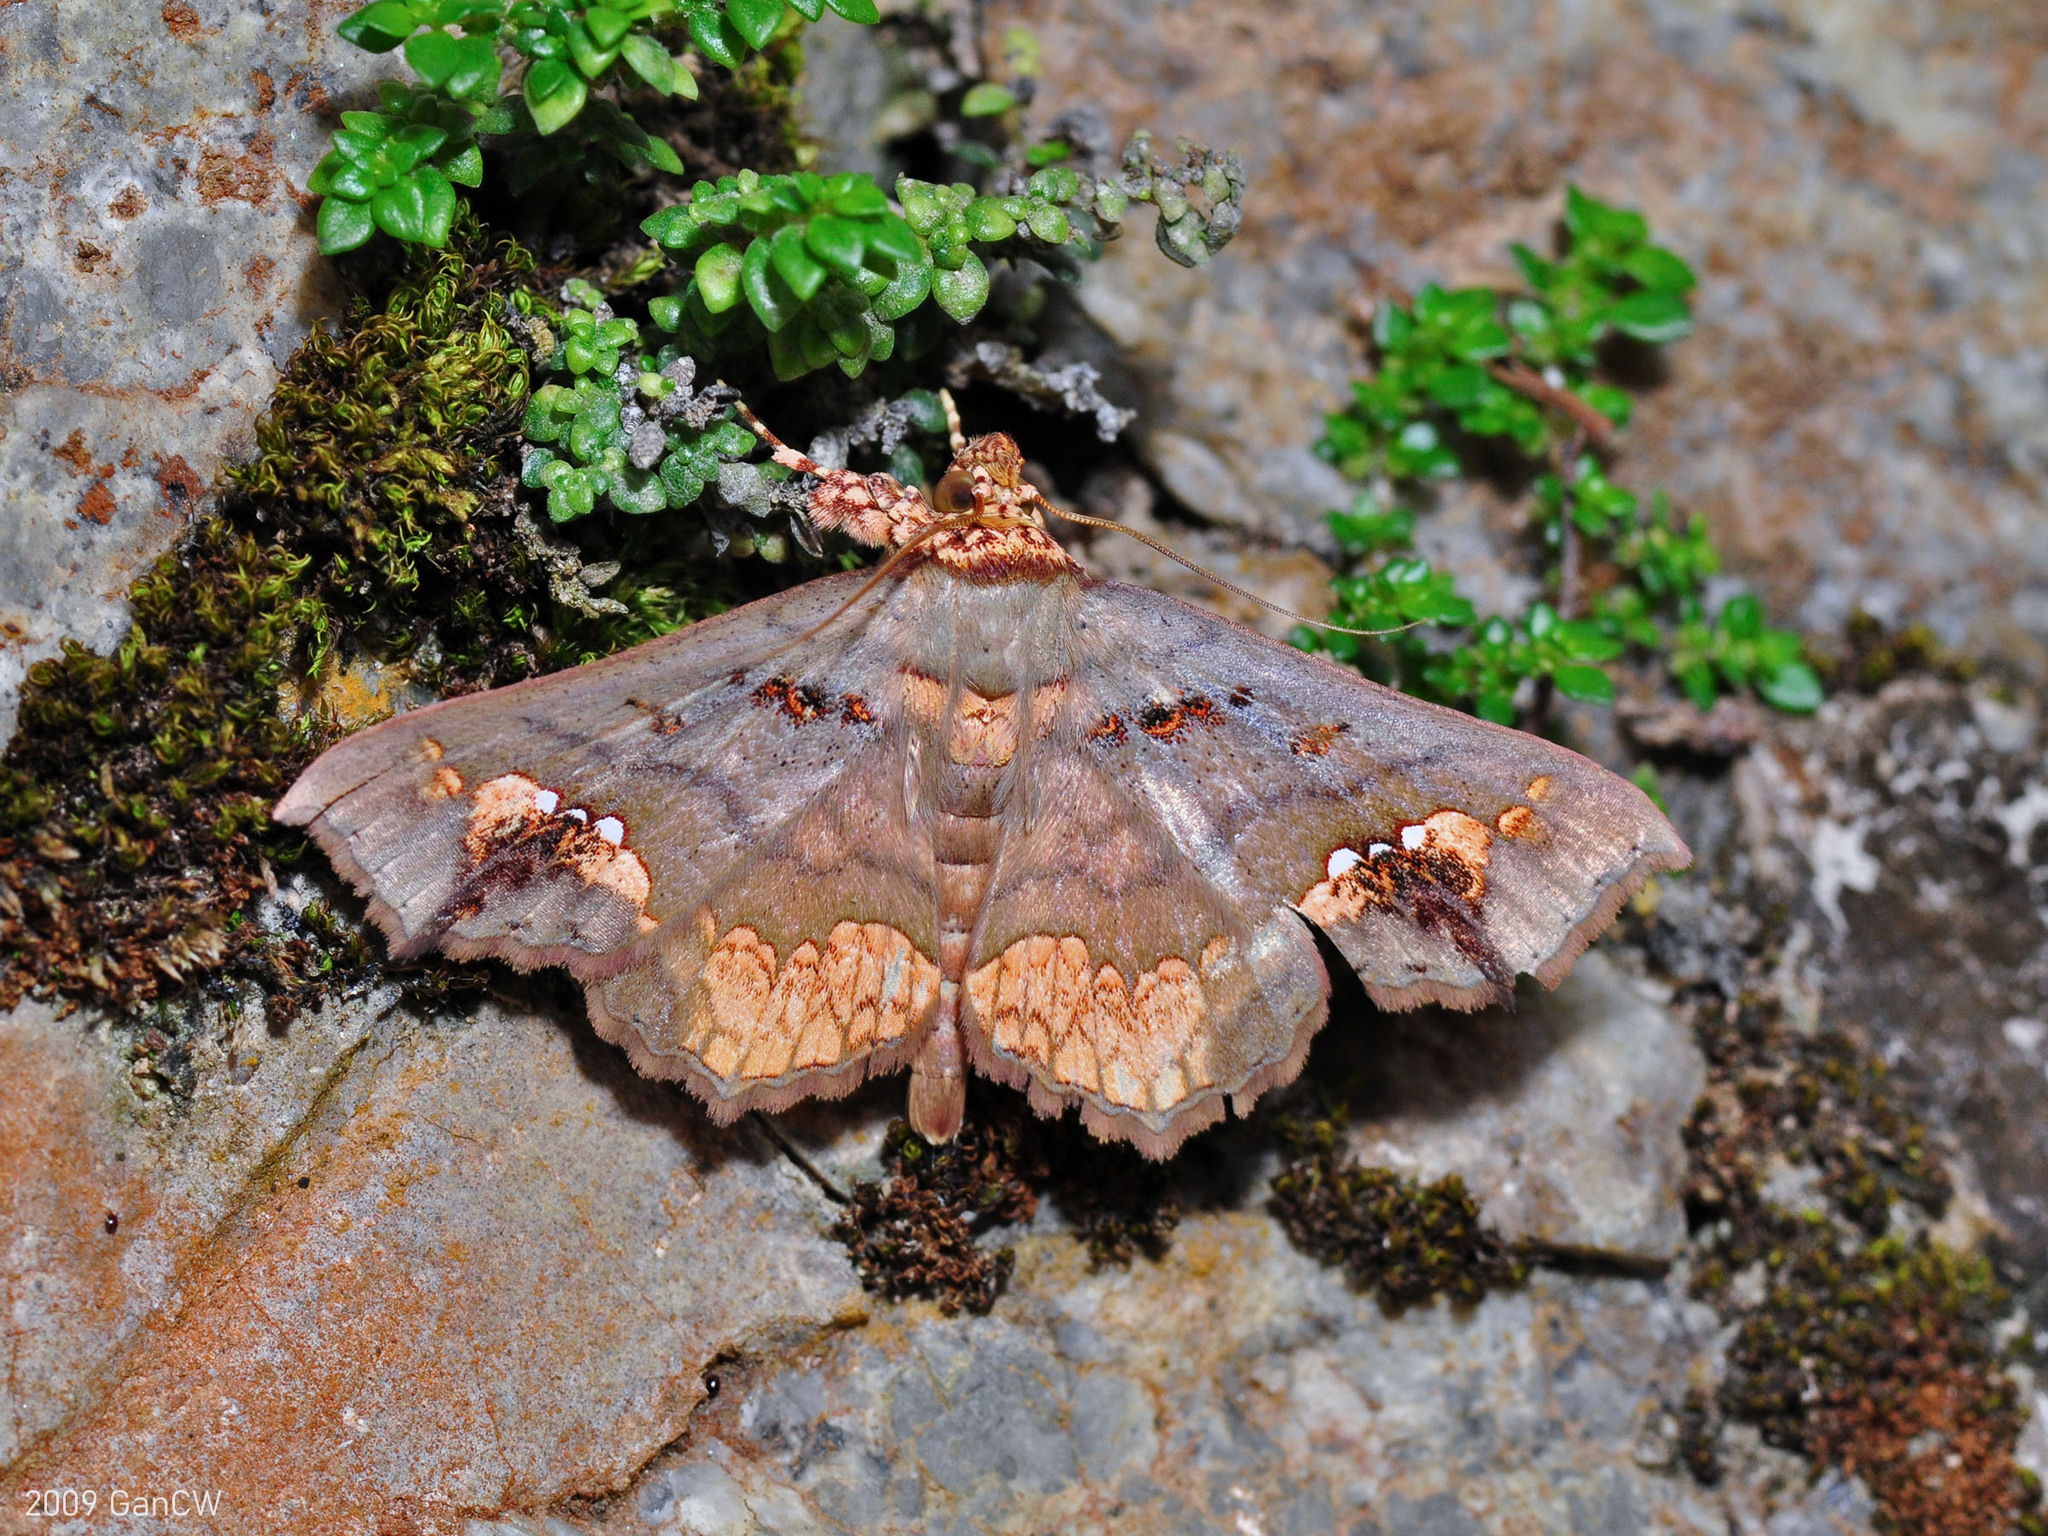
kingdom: Animalia
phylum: Arthropoda
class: Insecta
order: Lepidoptera
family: Erebidae
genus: Lopharthrum
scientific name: Lopharthrum comprimens
